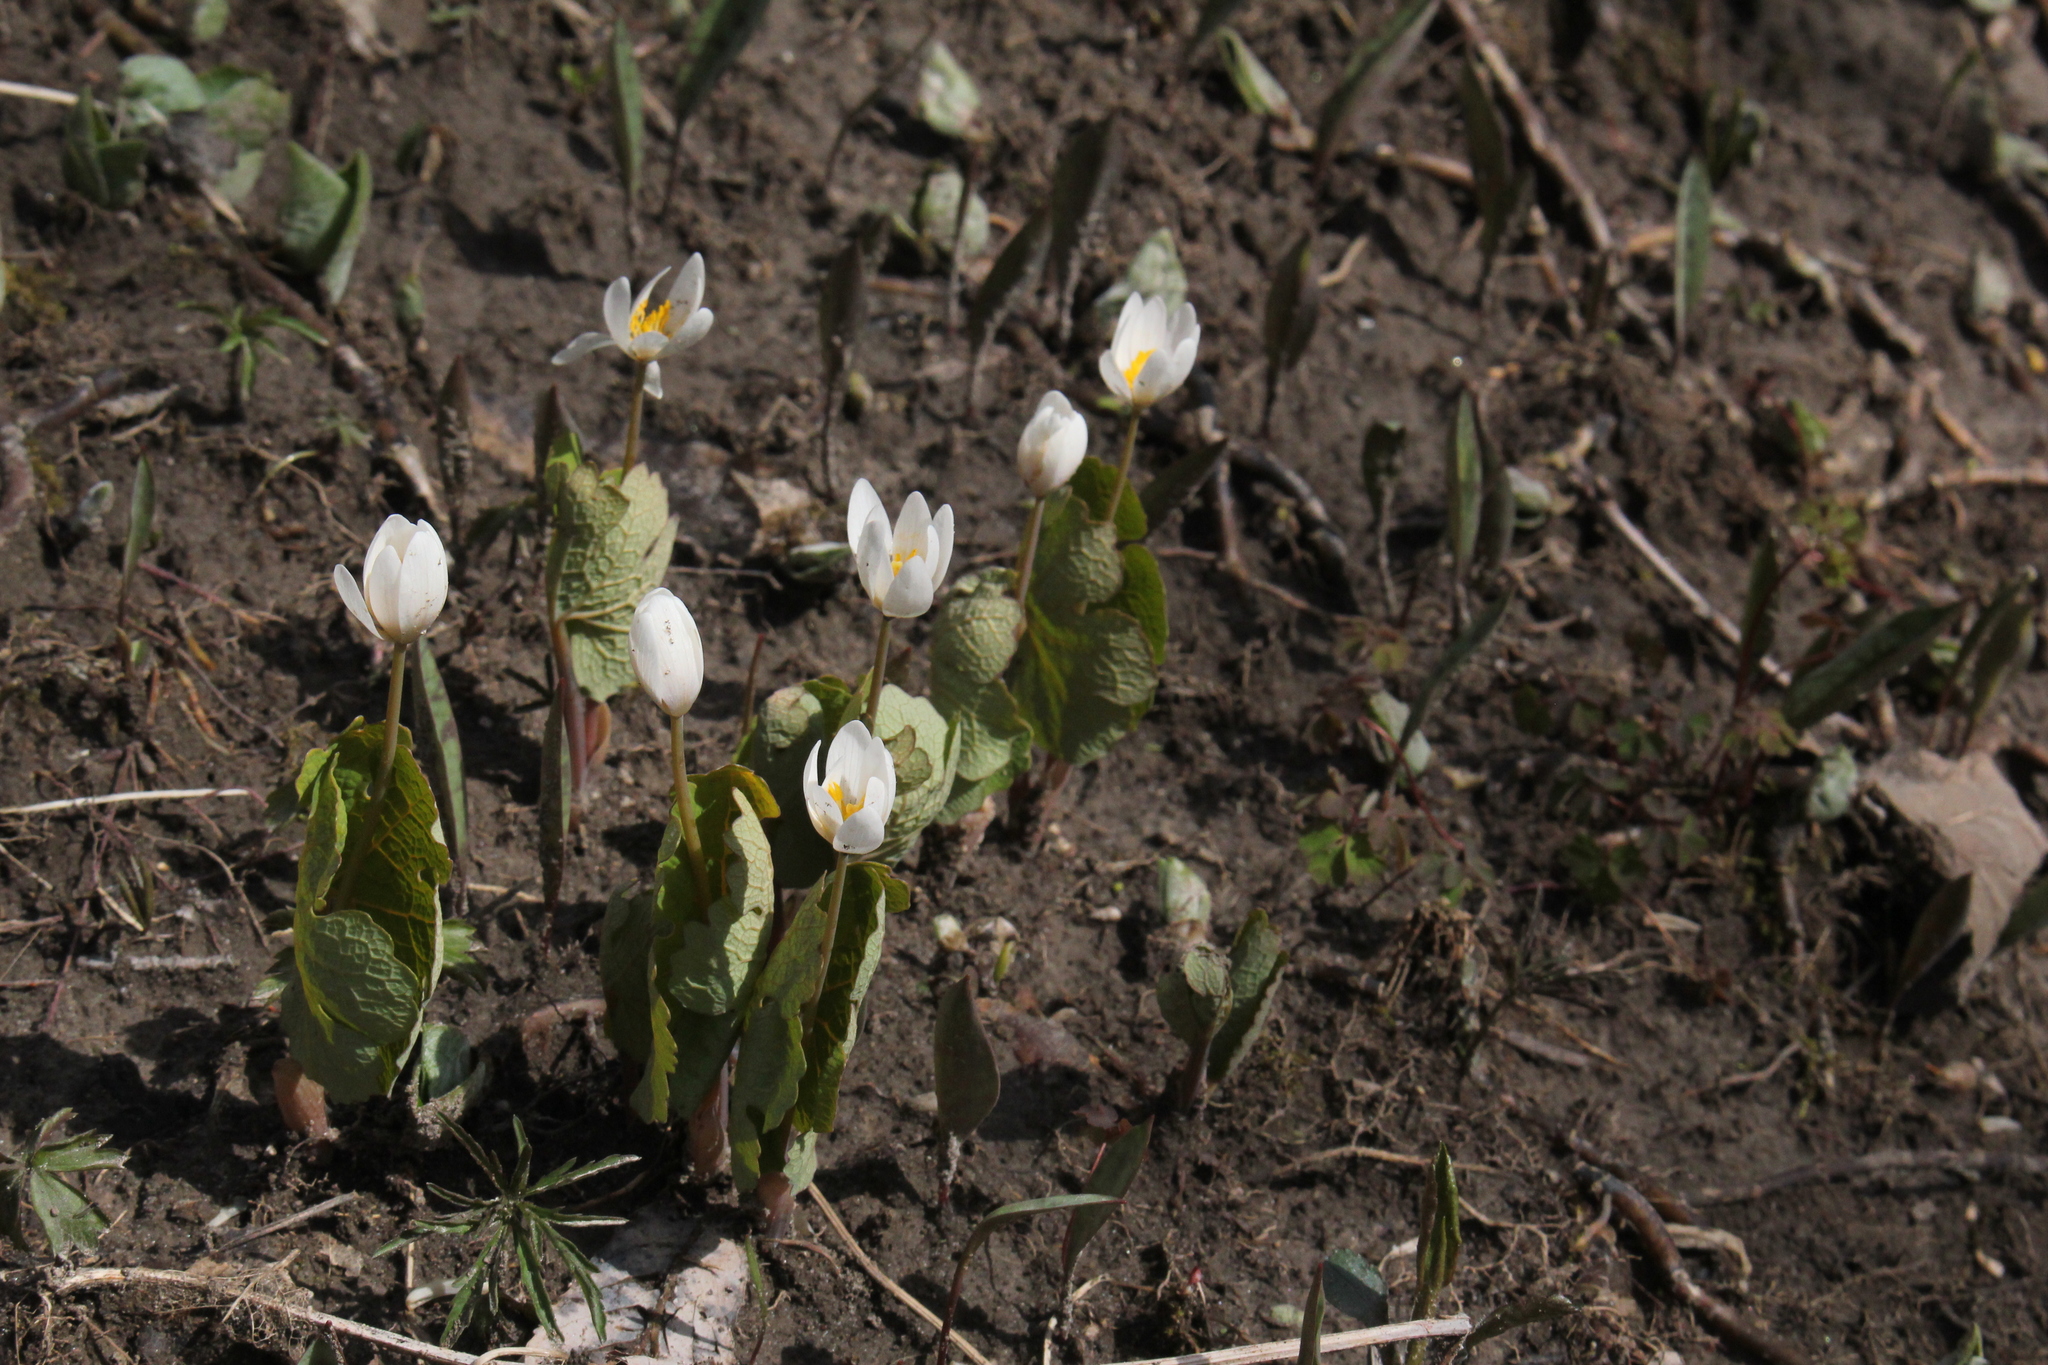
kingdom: Plantae
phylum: Tracheophyta
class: Magnoliopsida
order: Ranunculales
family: Papaveraceae
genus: Sanguinaria
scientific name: Sanguinaria canadensis
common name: Bloodroot
